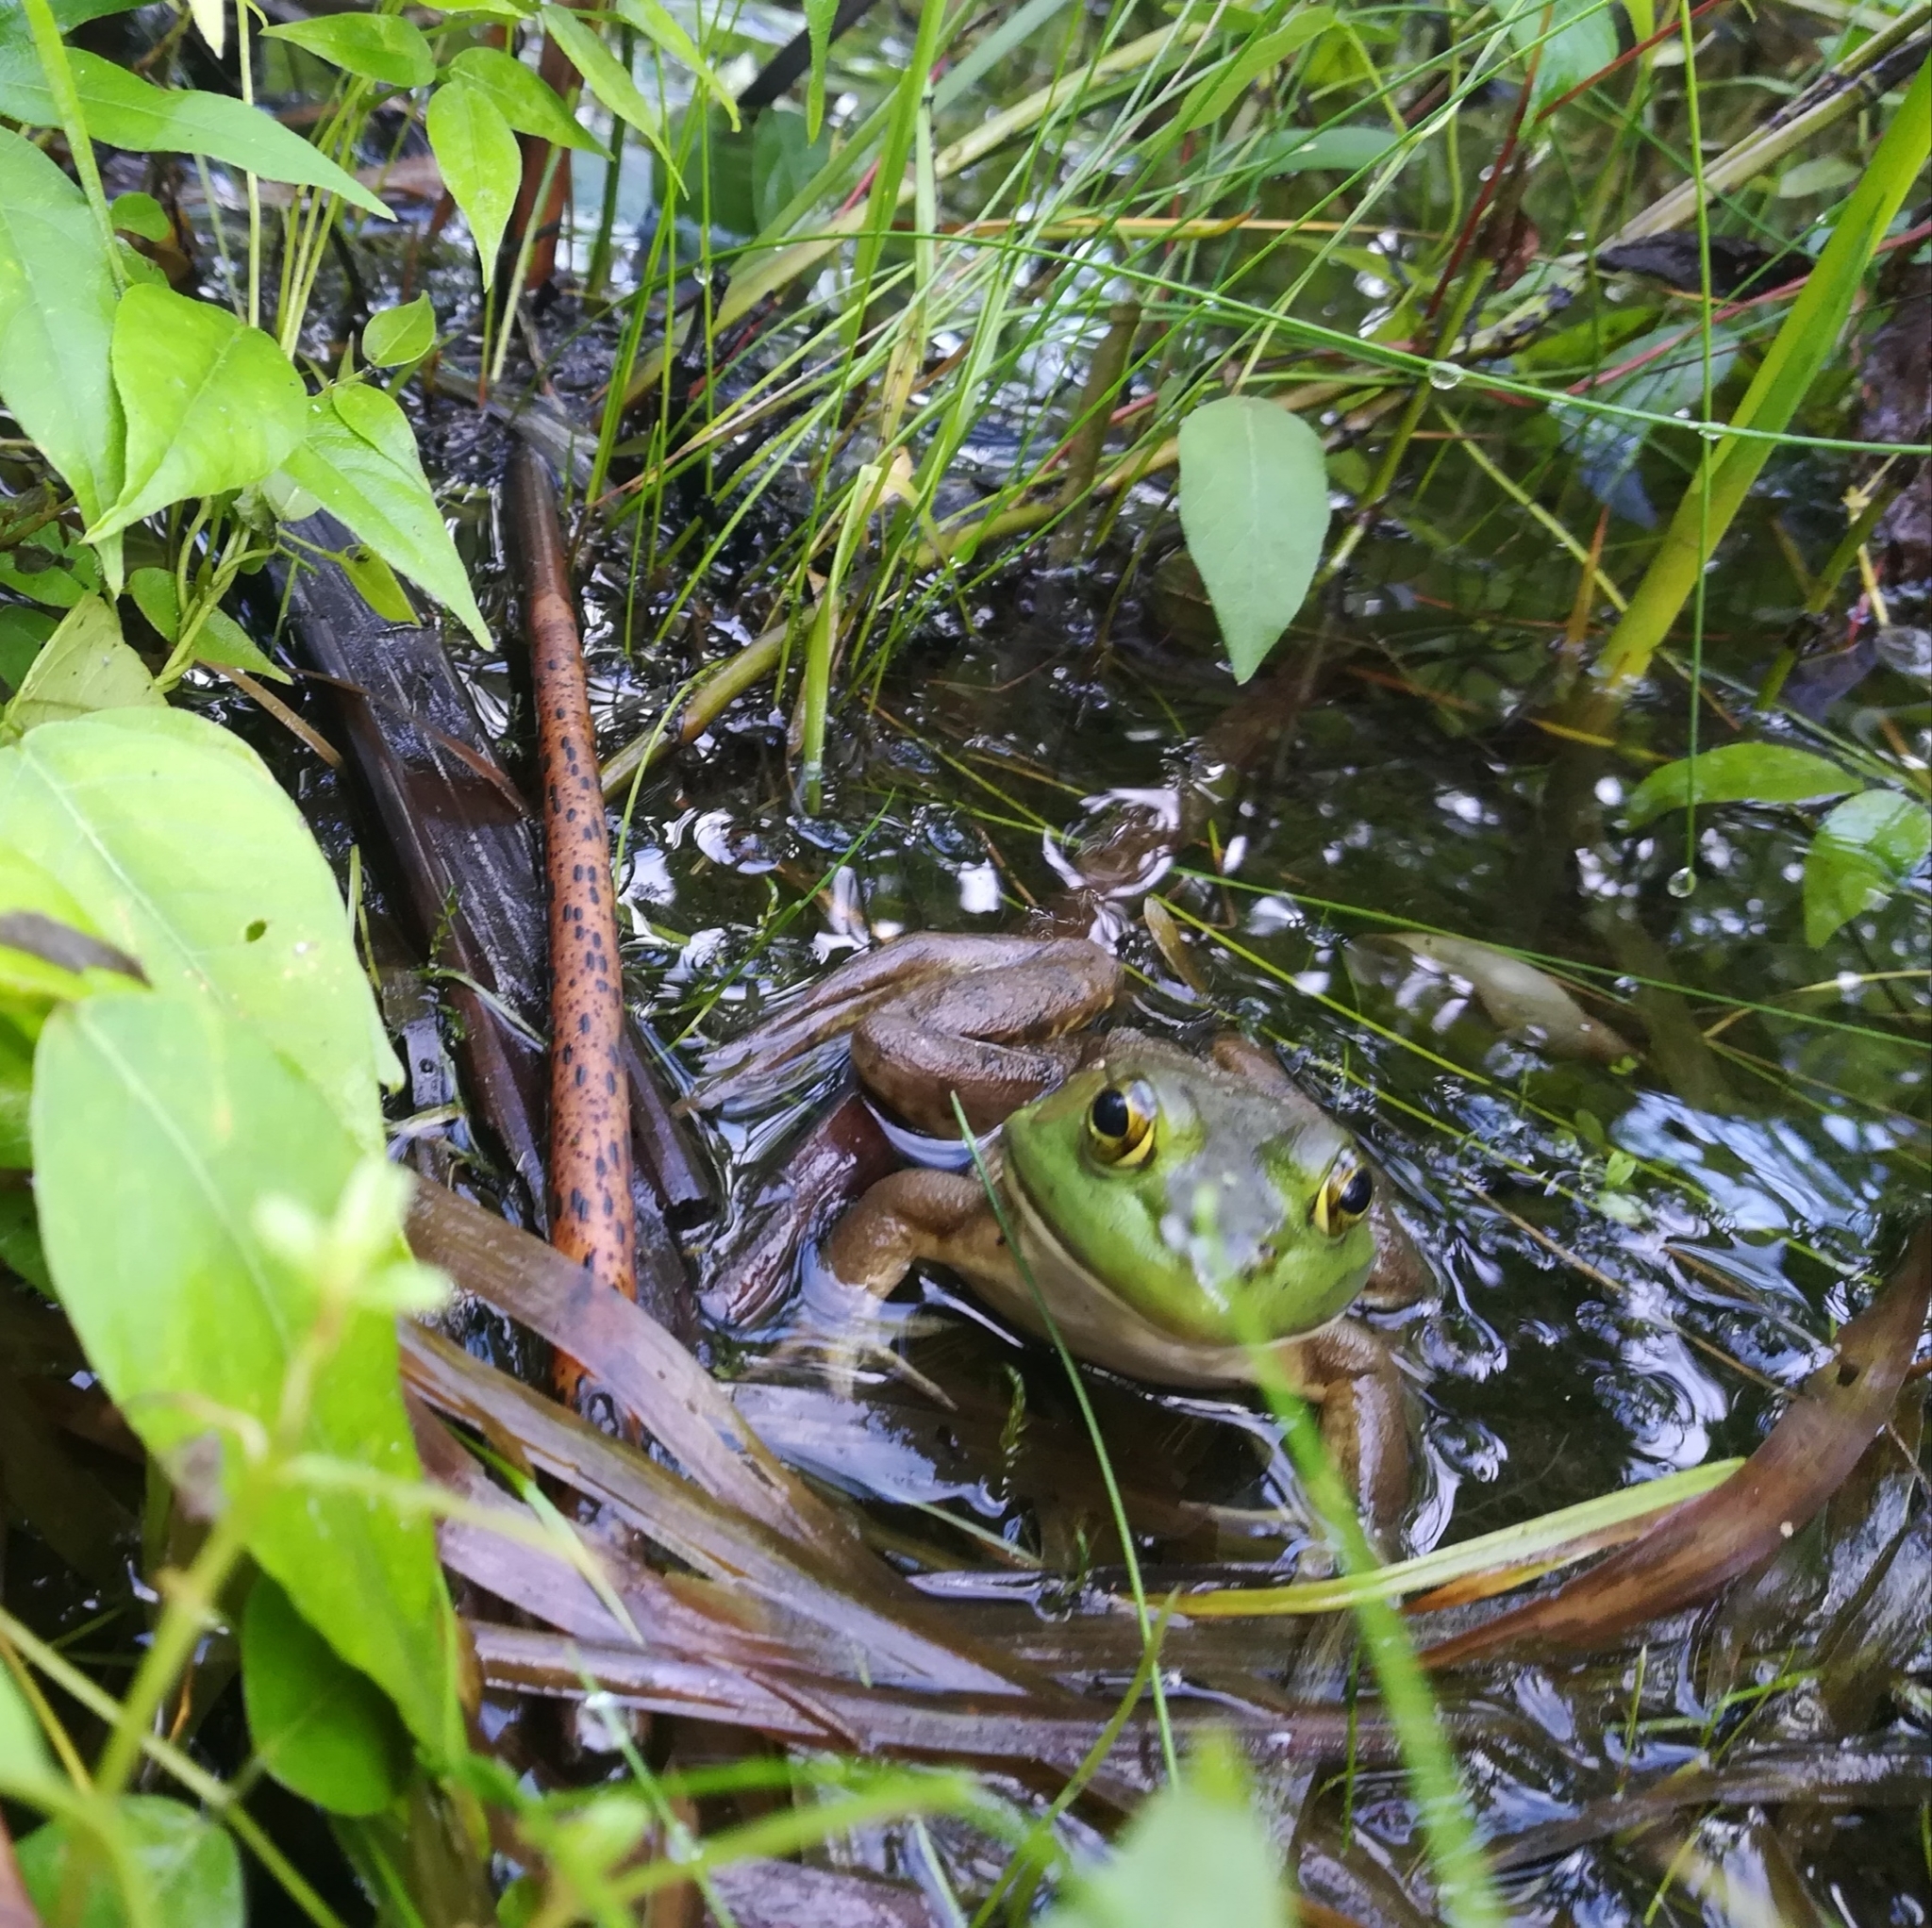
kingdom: Animalia
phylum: Chordata
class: Amphibia
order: Anura
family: Ranidae
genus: Lithobates
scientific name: Lithobates catesbeianus
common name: American bullfrog
